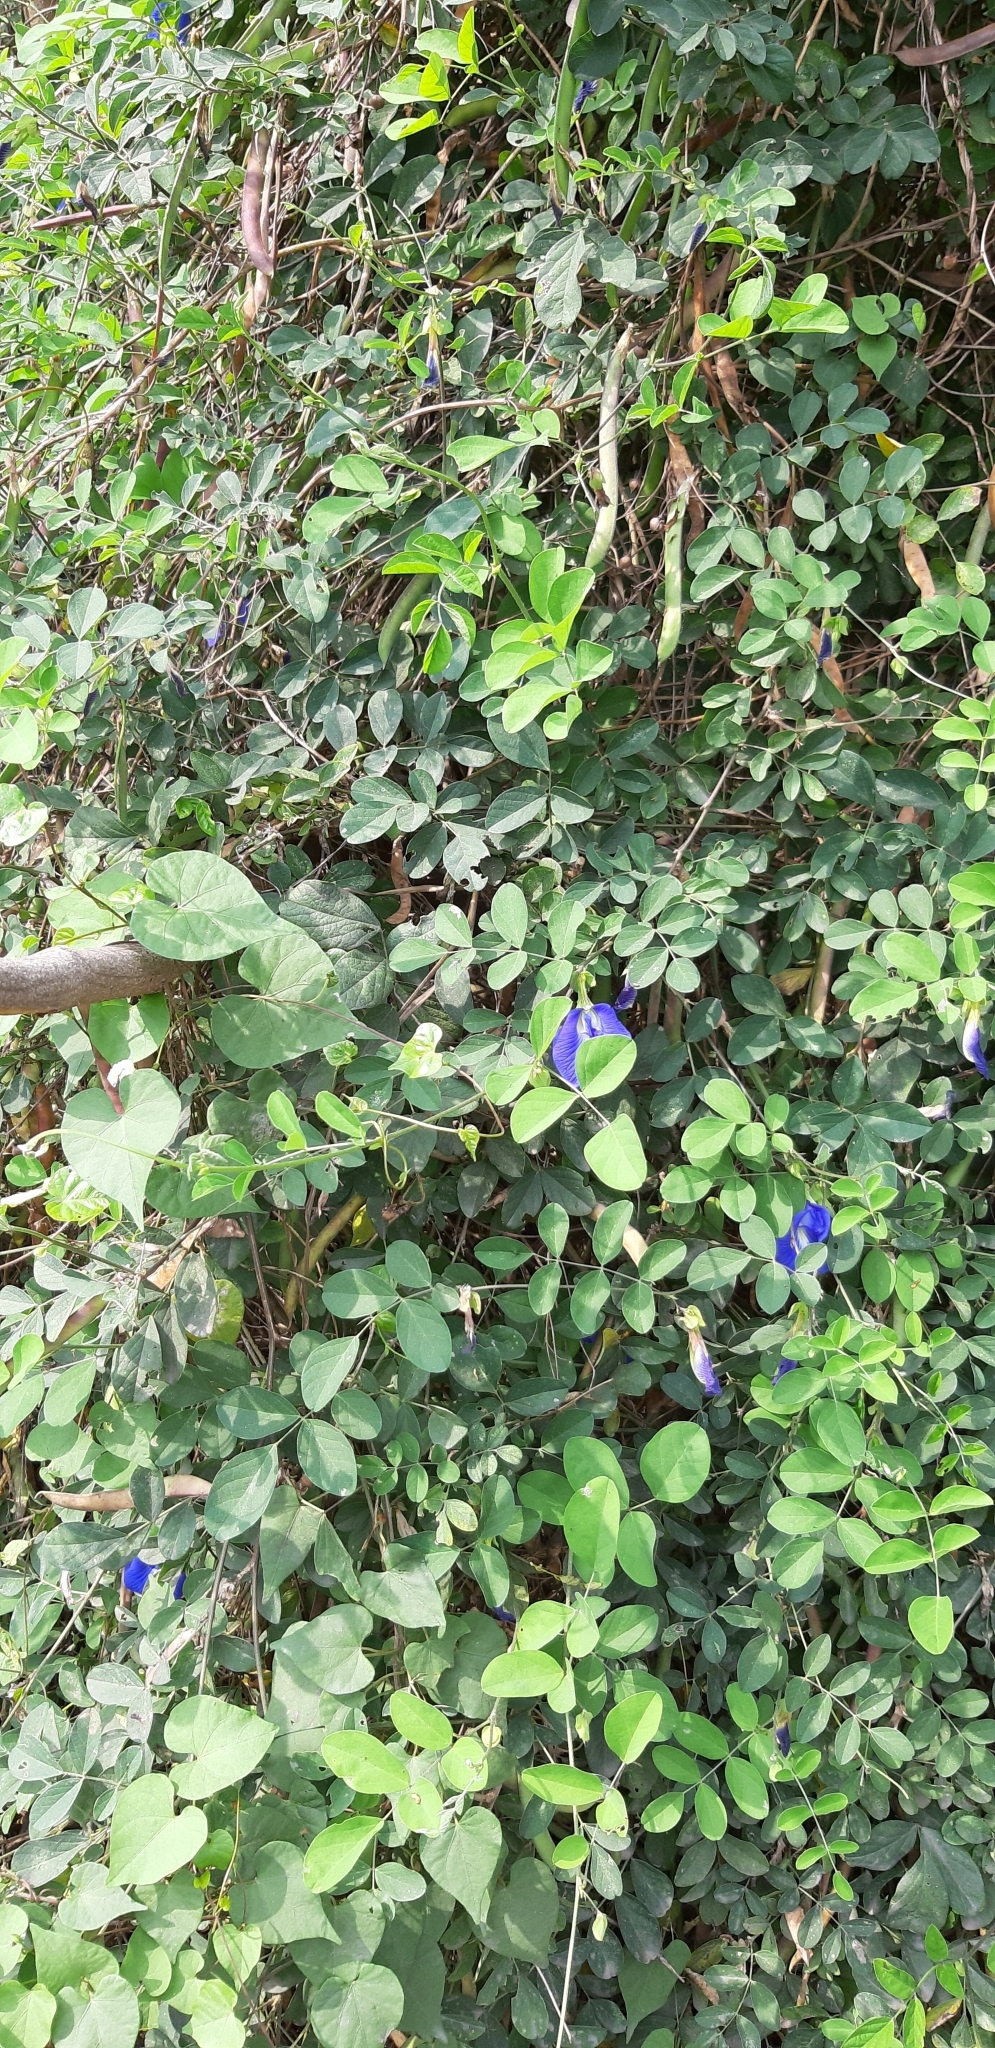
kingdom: Plantae
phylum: Tracheophyta
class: Magnoliopsida
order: Fabales
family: Fabaceae
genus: Clitoria
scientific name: Clitoria ternatea
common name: Asian pigeonwings
